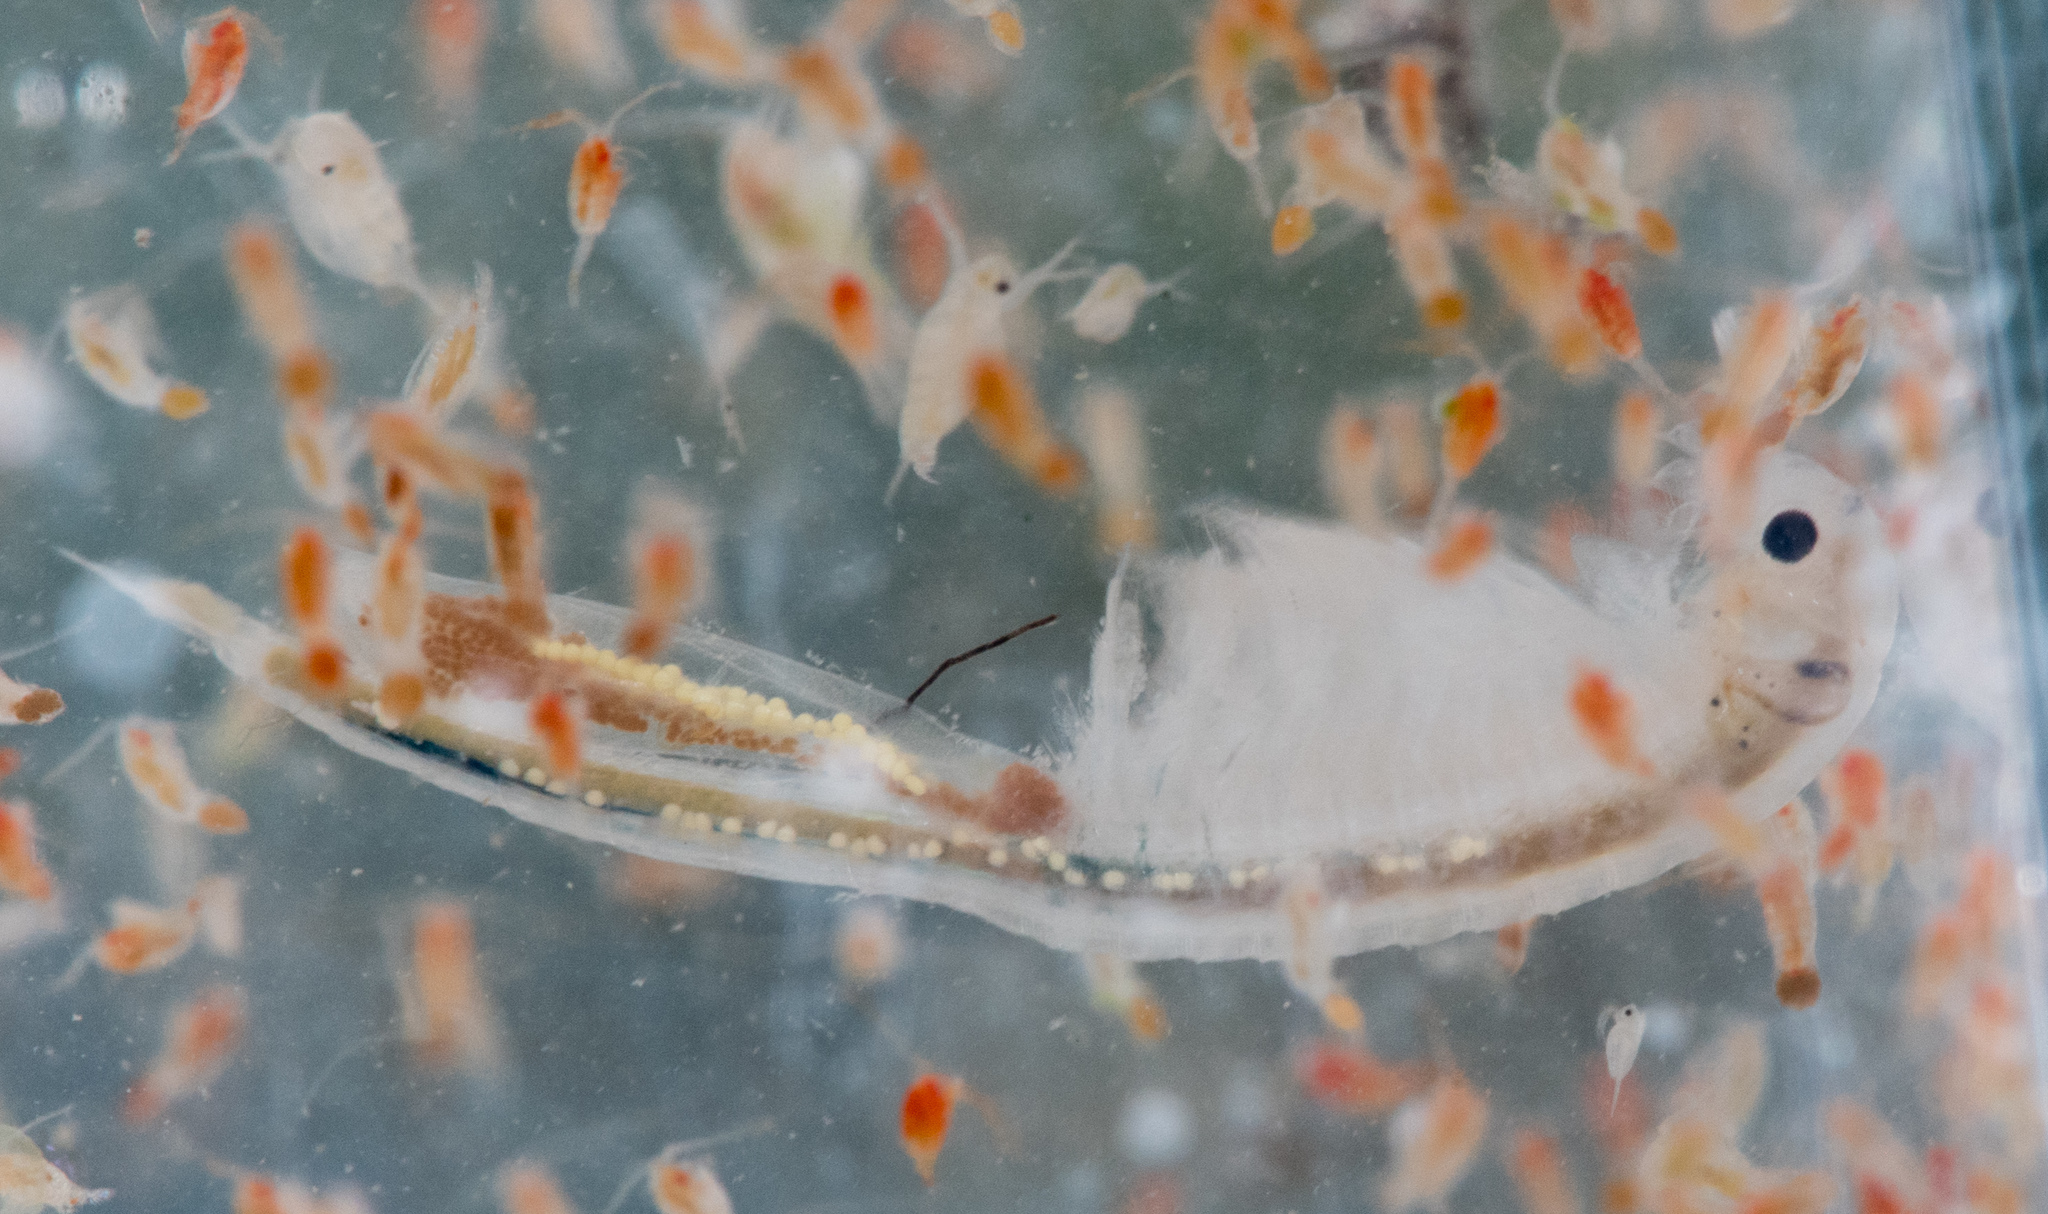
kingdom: Animalia
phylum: Arthropoda
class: Branchiopoda
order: Anostraca
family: Branchinectidae
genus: Branchinecta
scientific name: Branchinecta conservatio
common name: Conservancy fairy shrimp
